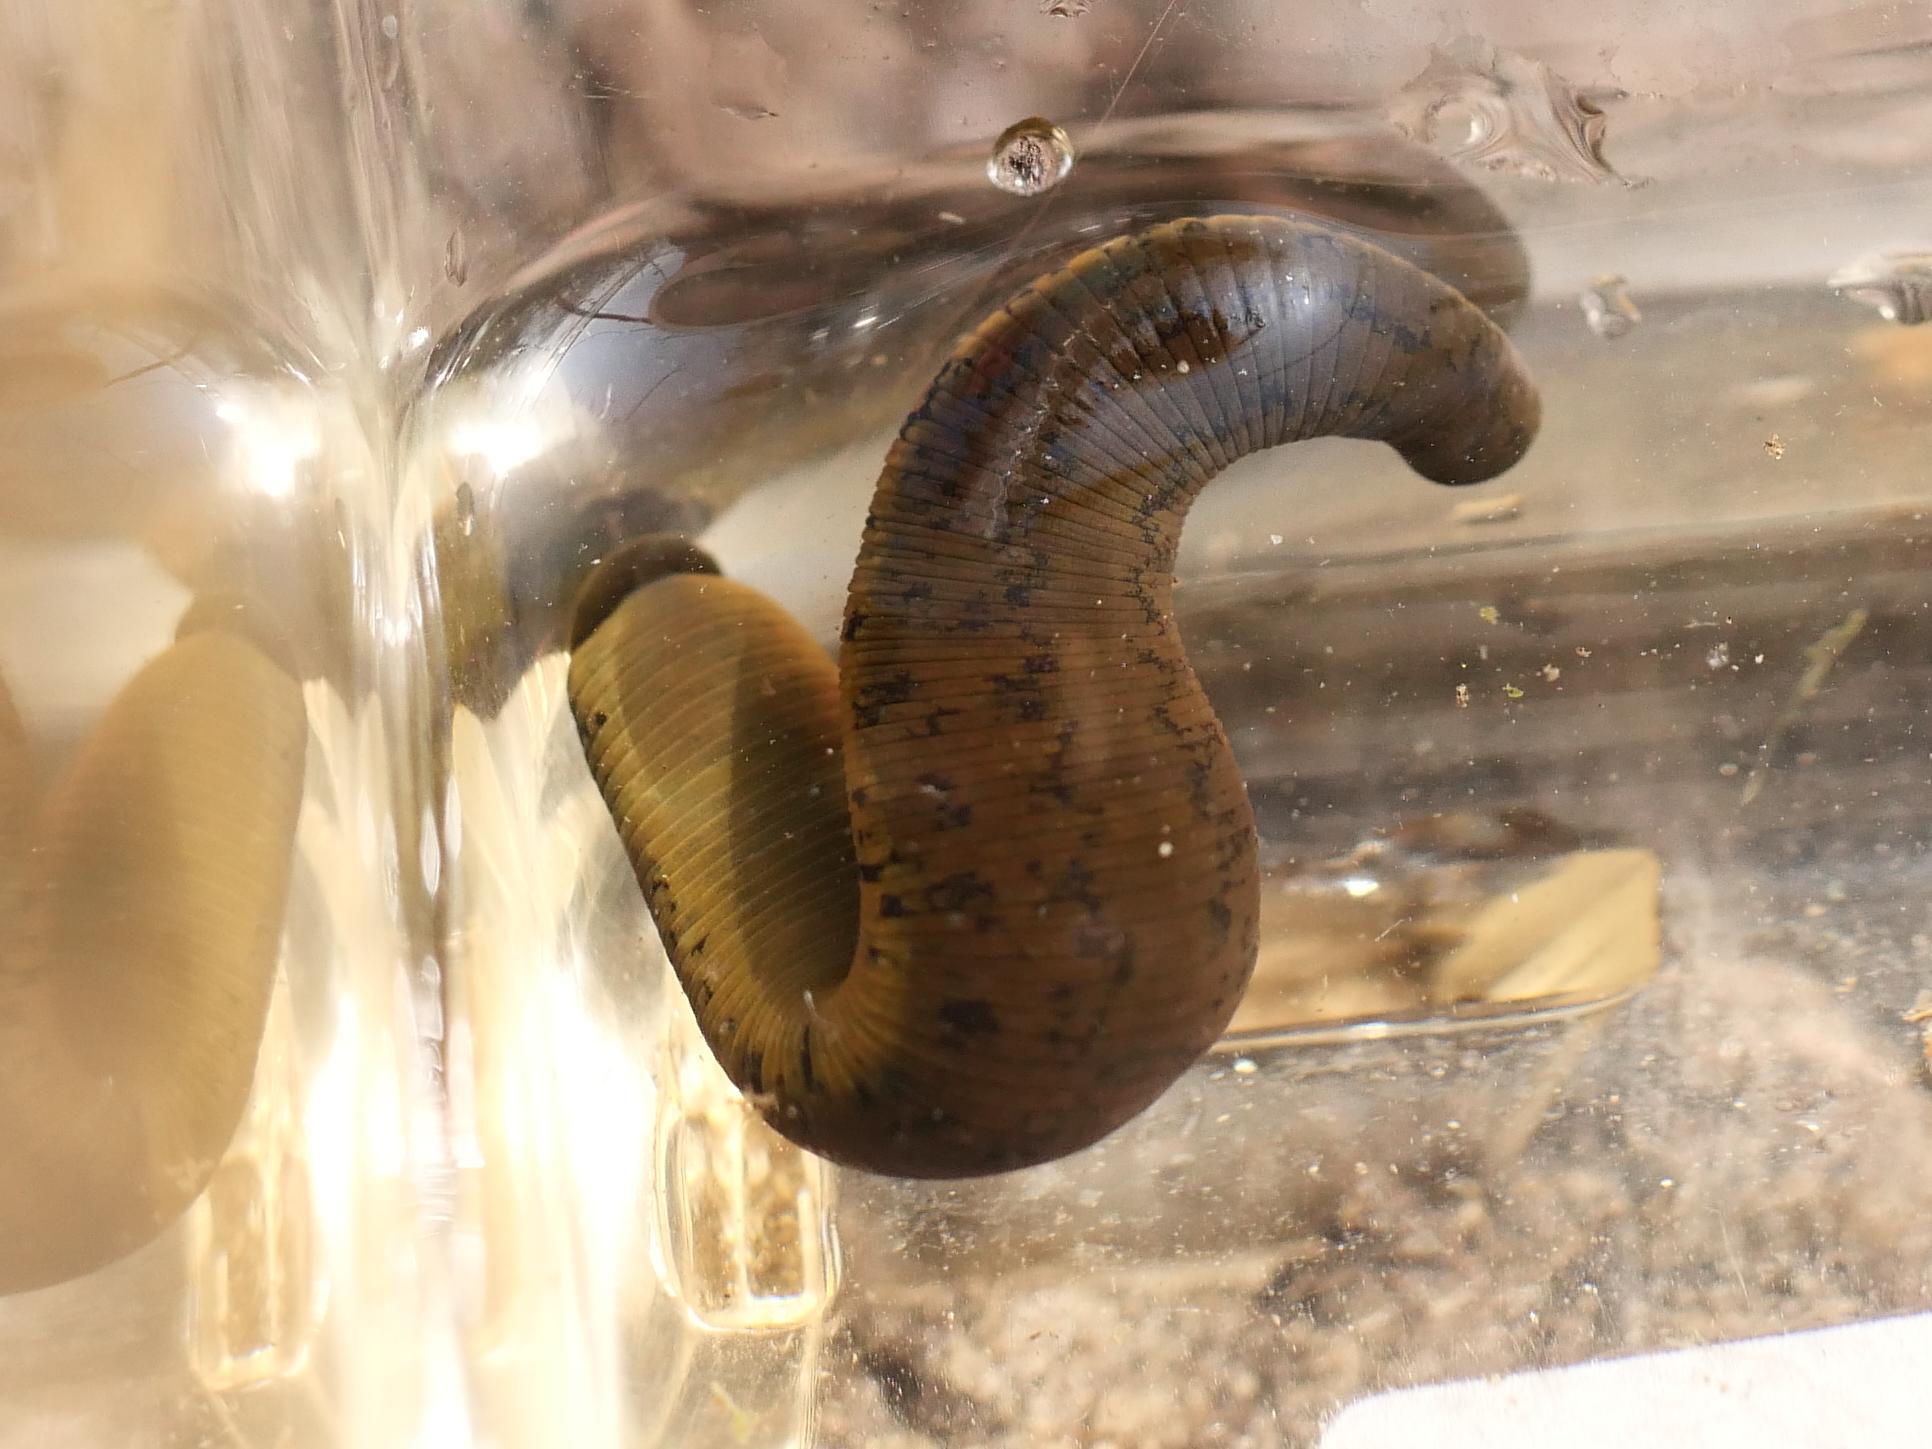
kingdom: Animalia
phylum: Annelida
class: Clitellata
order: Arhynchobdellida
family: Haemopidae
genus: Haemopis
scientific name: Haemopis sanguisuga
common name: Horse leech
